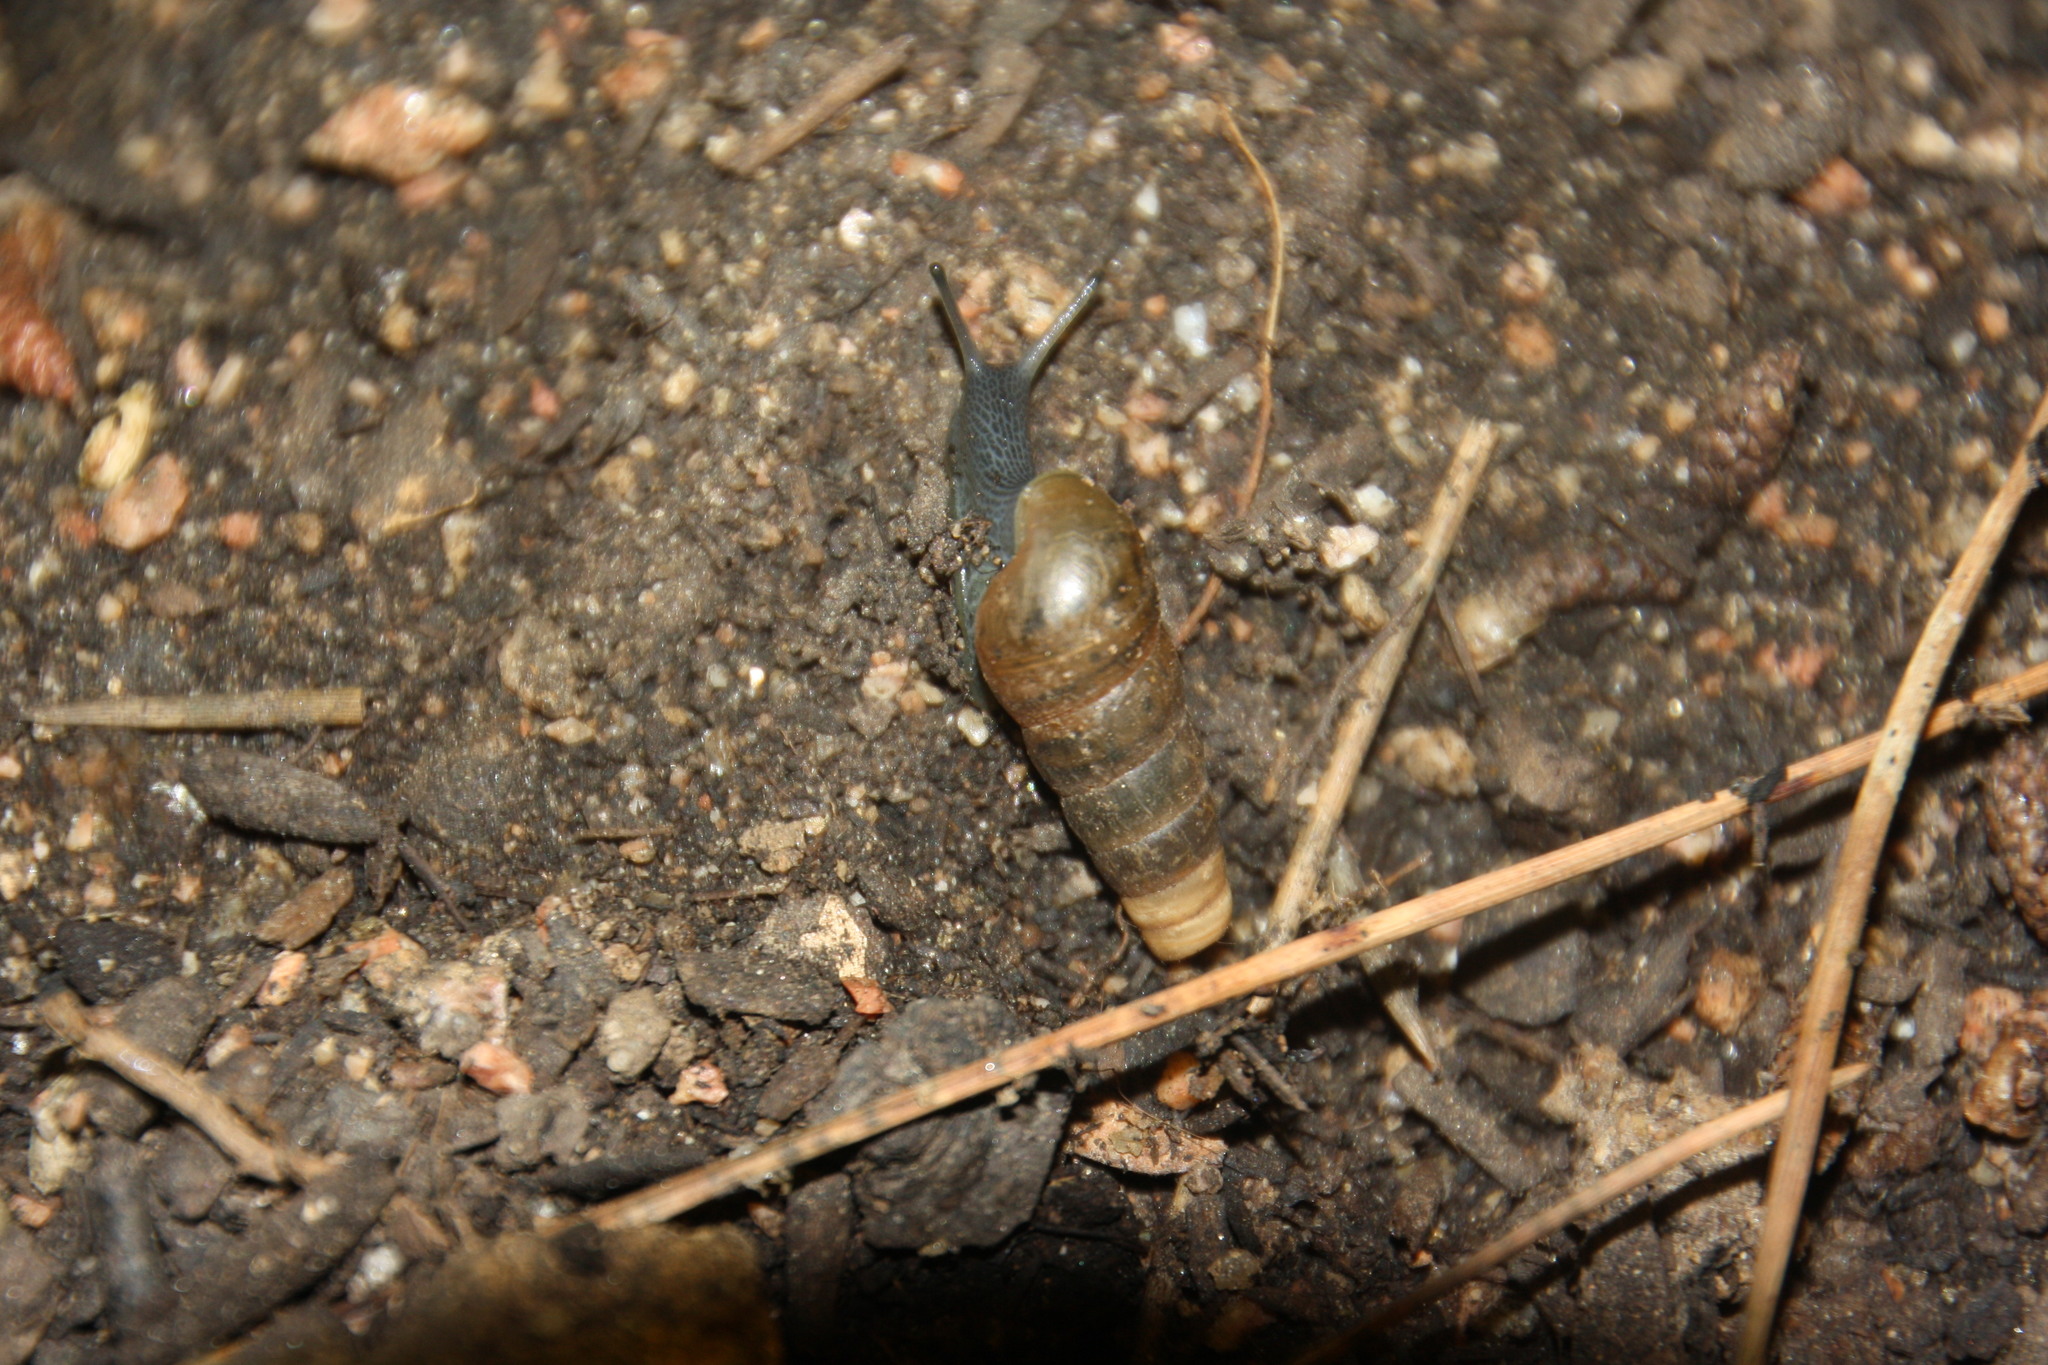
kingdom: Animalia
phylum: Mollusca
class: Gastropoda
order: Stylommatophora
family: Achatinidae
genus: Rumina
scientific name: Rumina decollata
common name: Decollate snail
